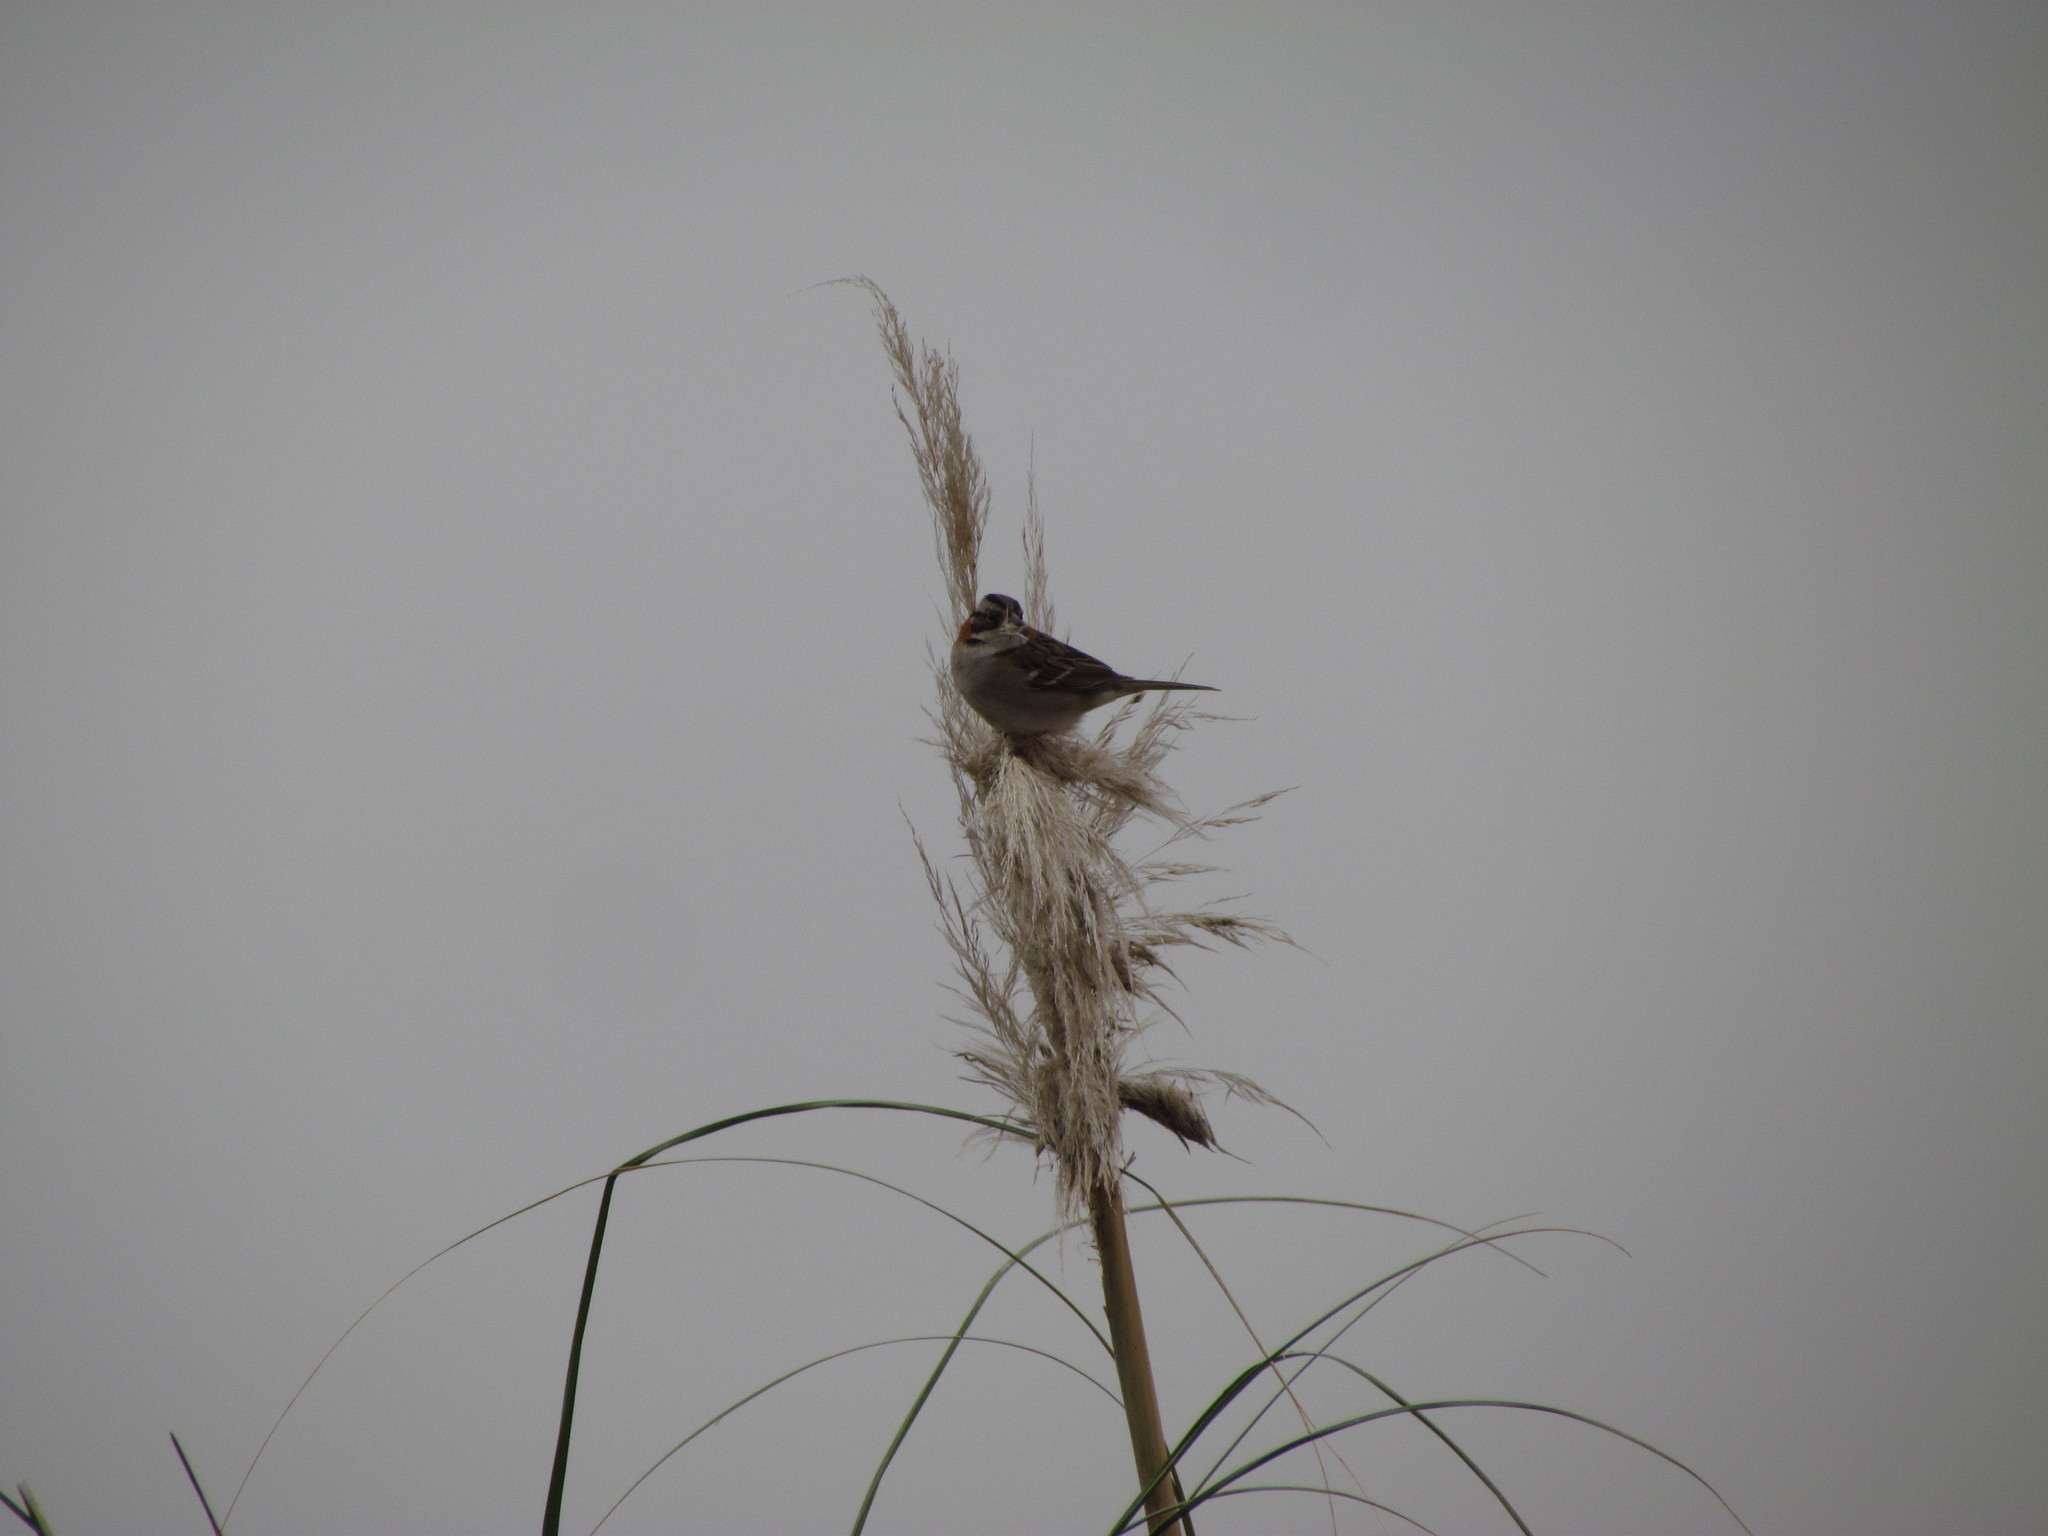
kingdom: Animalia
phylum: Chordata
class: Aves
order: Passeriformes
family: Passerellidae
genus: Zonotrichia
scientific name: Zonotrichia capensis
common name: Rufous-collared sparrow
